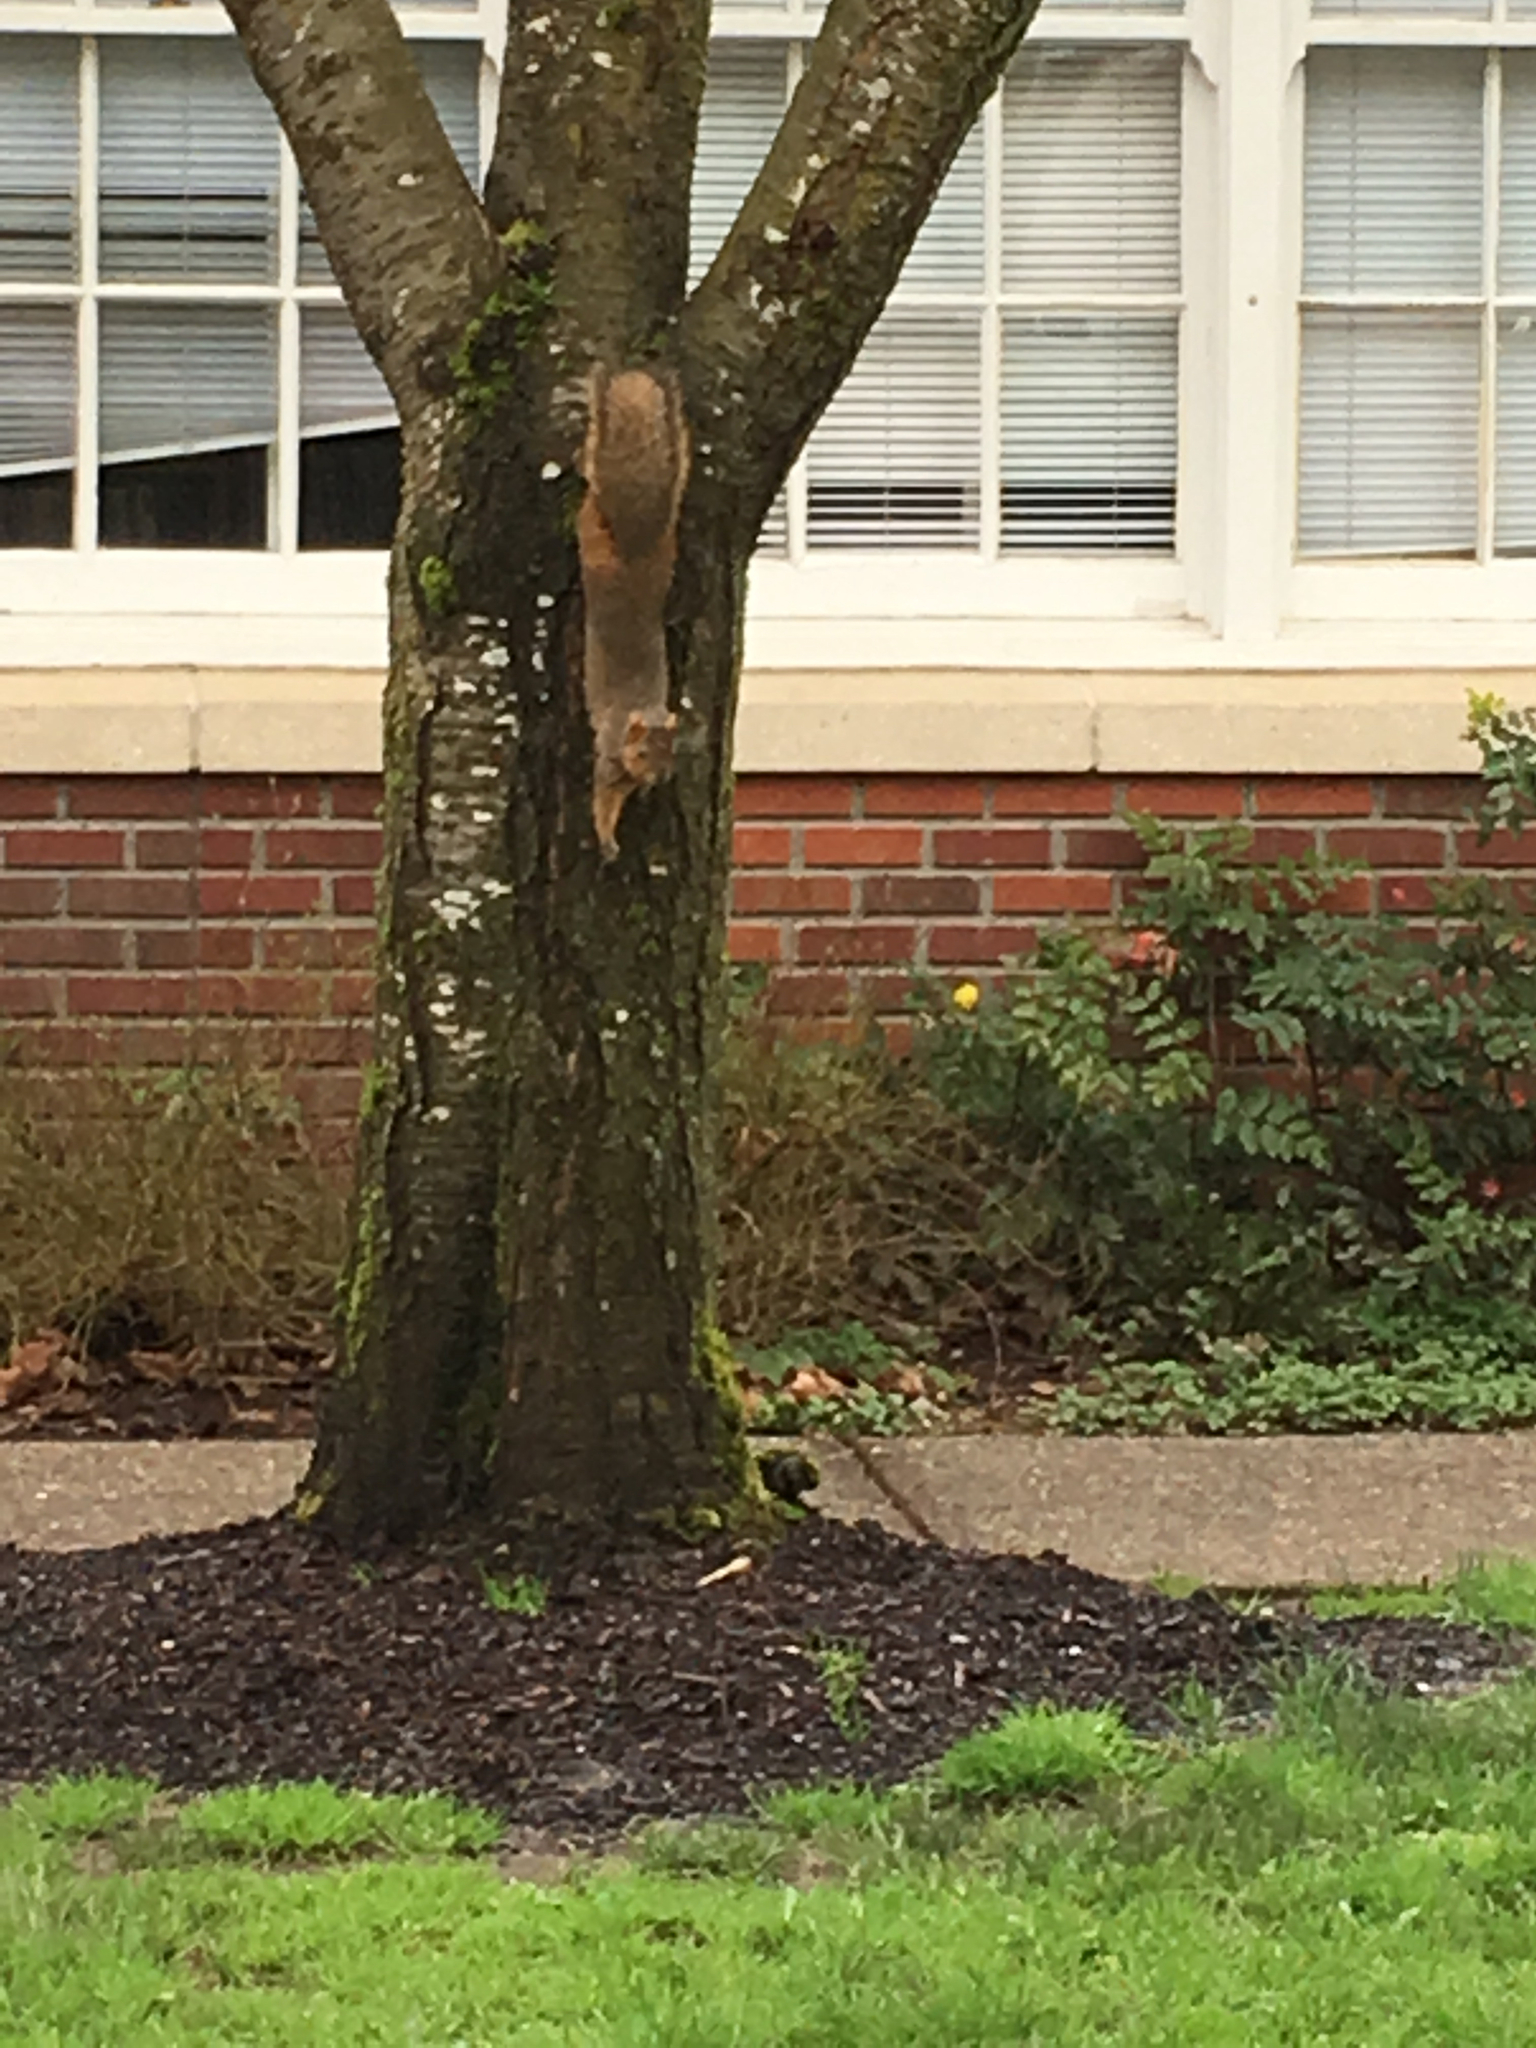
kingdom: Animalia
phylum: Chordata
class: Mammalia
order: Rodentia
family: Sciuridae
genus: Sciurus
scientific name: Sciurus niger
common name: Fox squirrel
